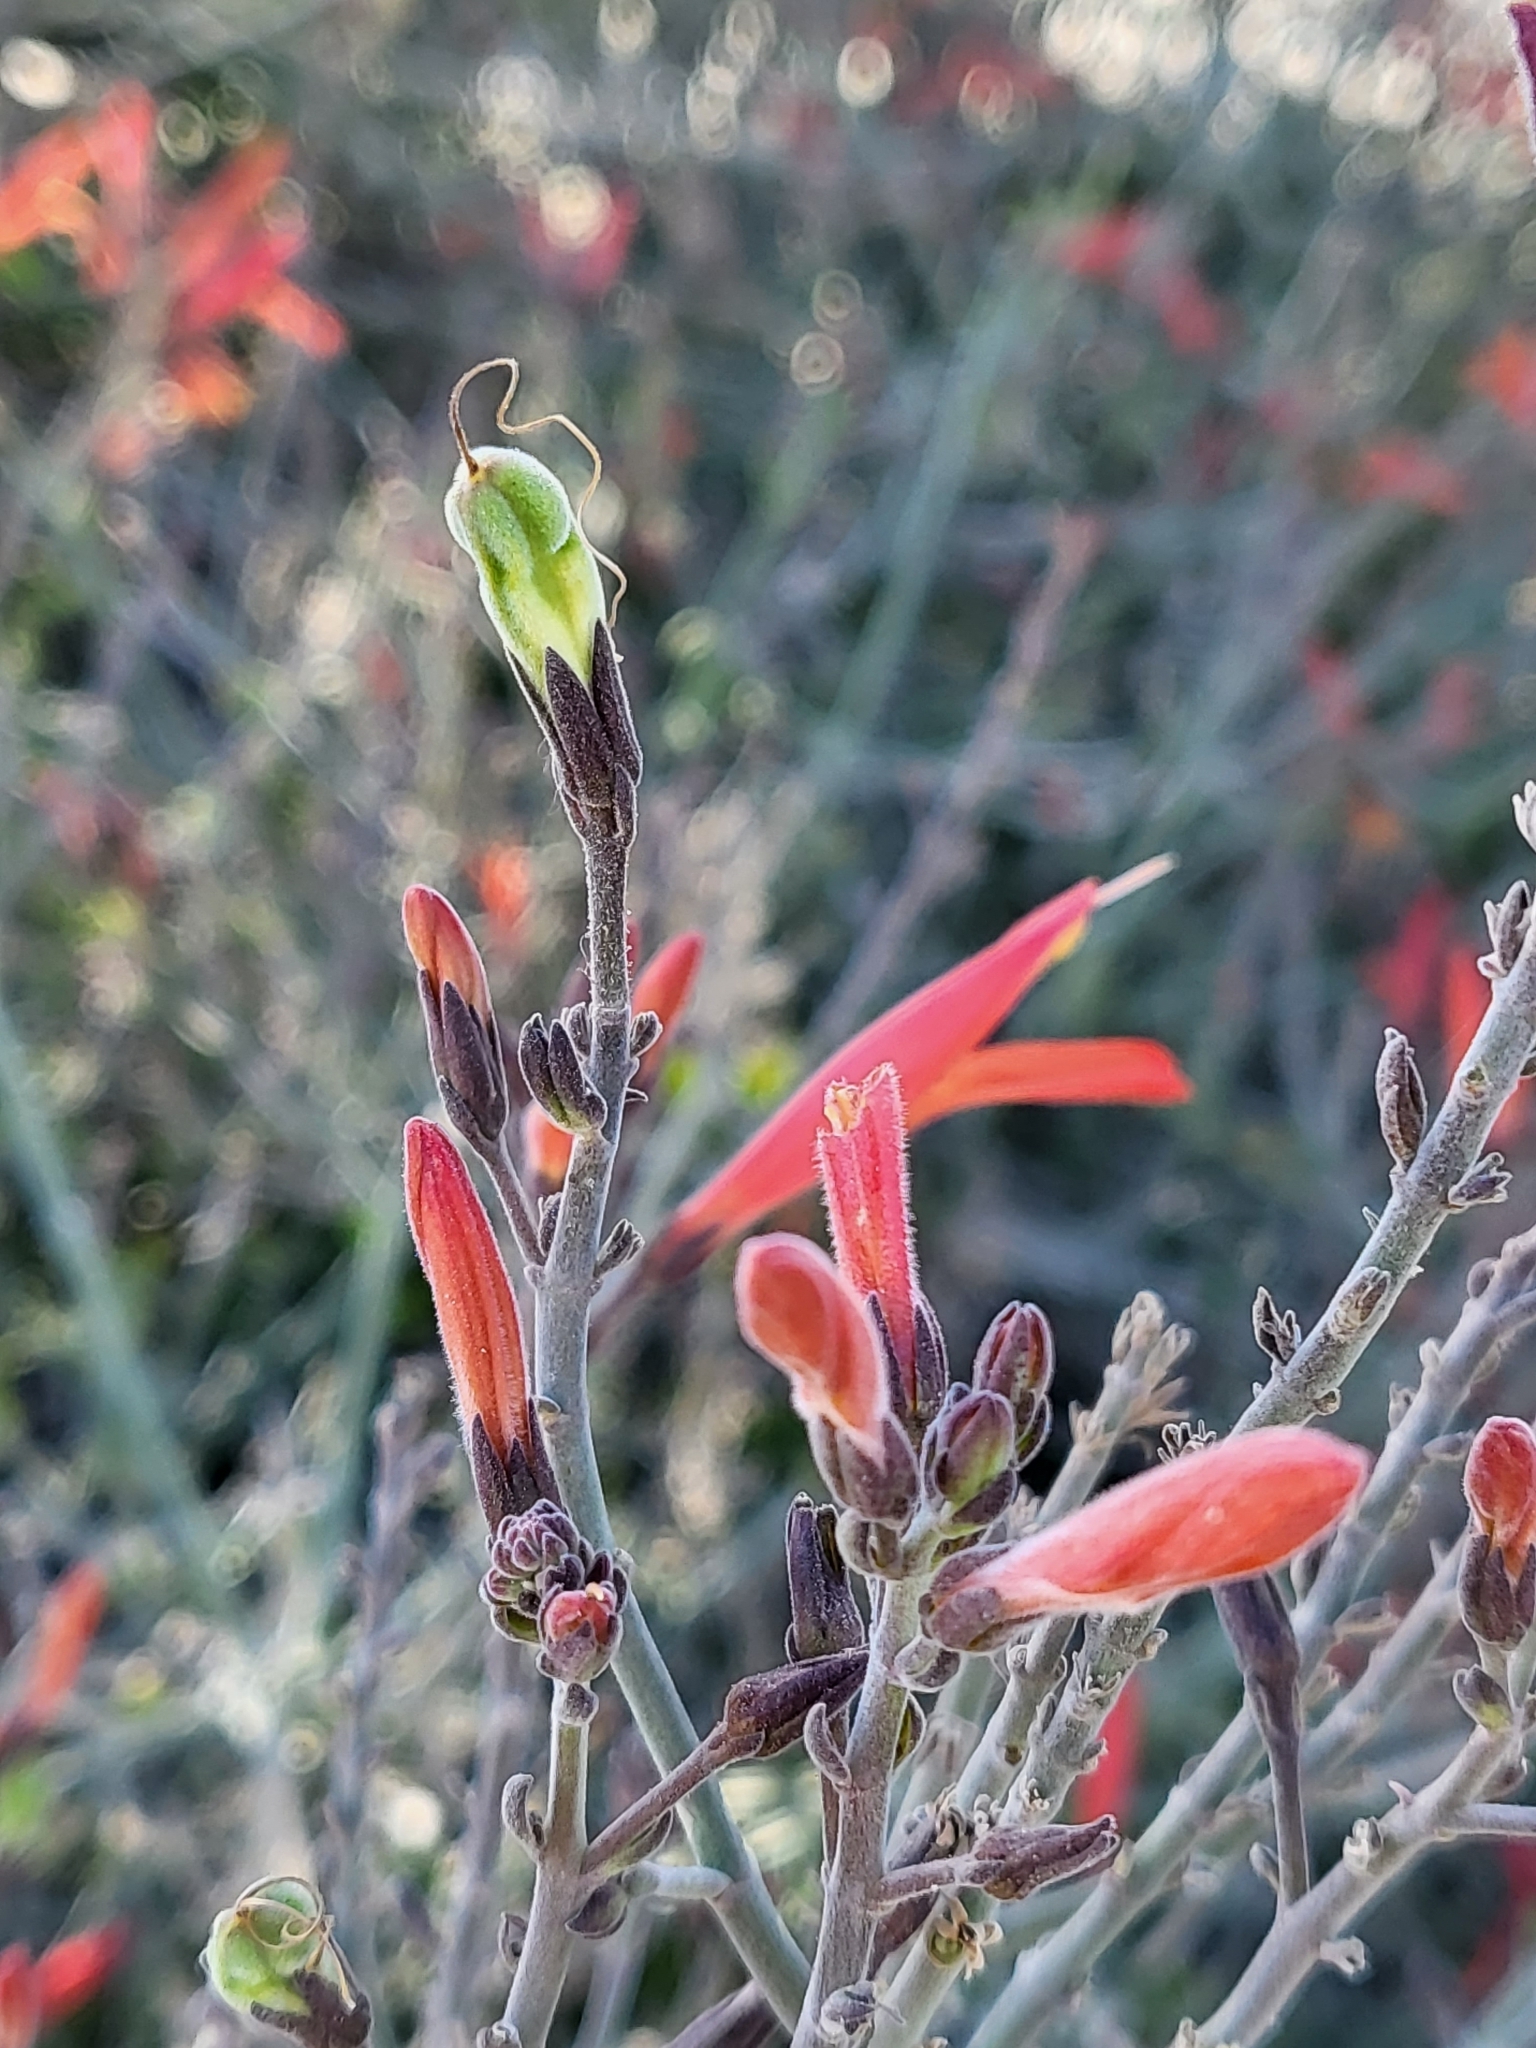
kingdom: Plantae
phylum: Tracheophyta
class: Magnoliopsida
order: Lamiales
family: Acanthaceae
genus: Justicia
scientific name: Justicia californica
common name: Chuparosa-honeysuckle
